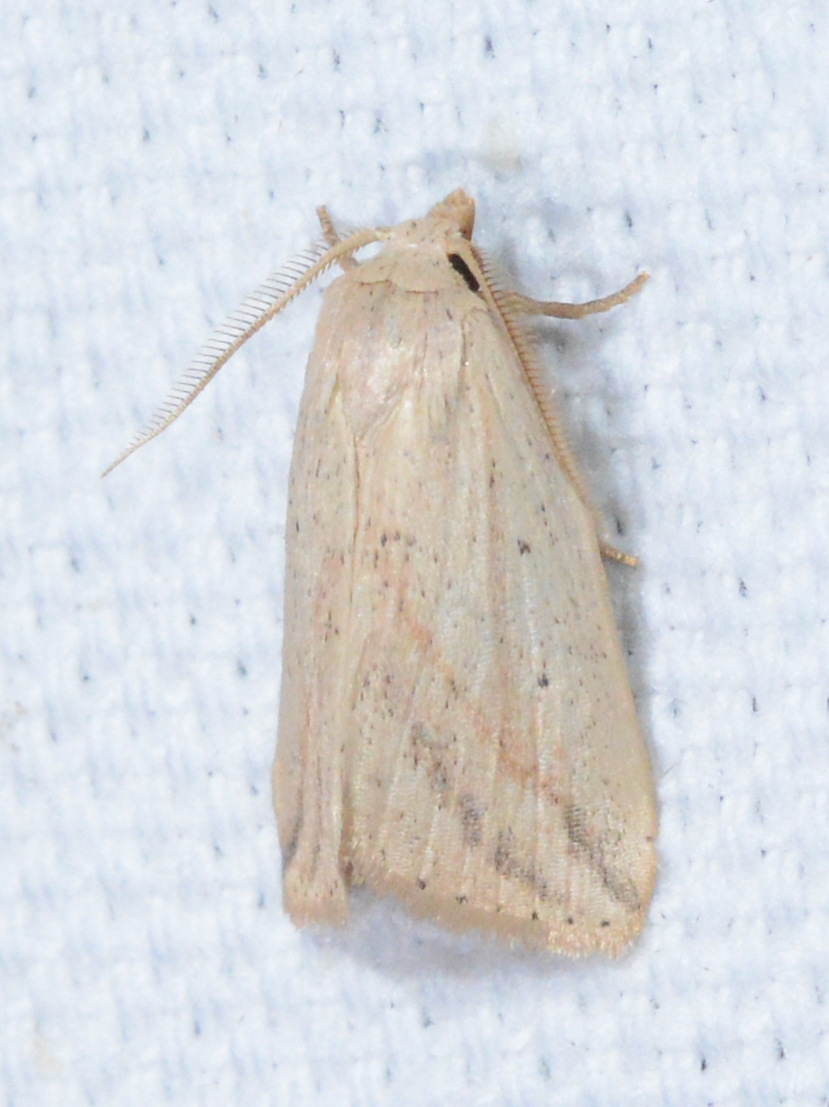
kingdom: Animalia
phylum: Arthropoda
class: Insecta
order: Lepidoptera
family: Noctuidae
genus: Amolita
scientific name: Amolita obliqua
